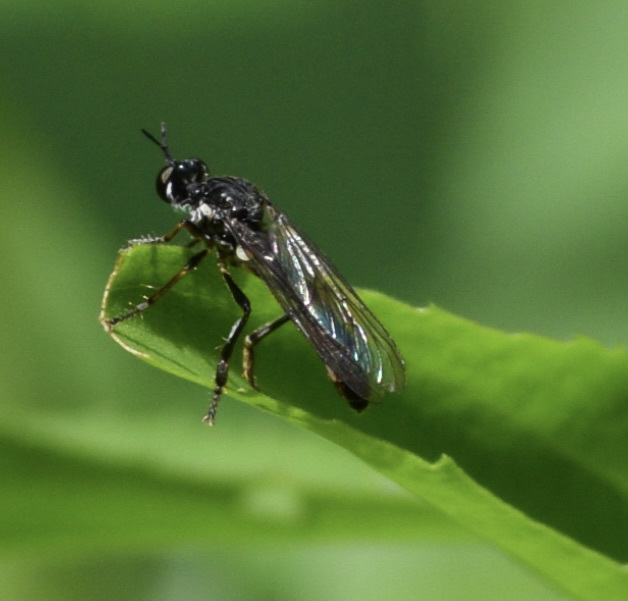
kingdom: Animalia
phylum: Arthropoda
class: Insecta
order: Diptera
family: Asilidae
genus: Dioctria
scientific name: Dioctria hyalipennis
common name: Stripe-legged robberfly
